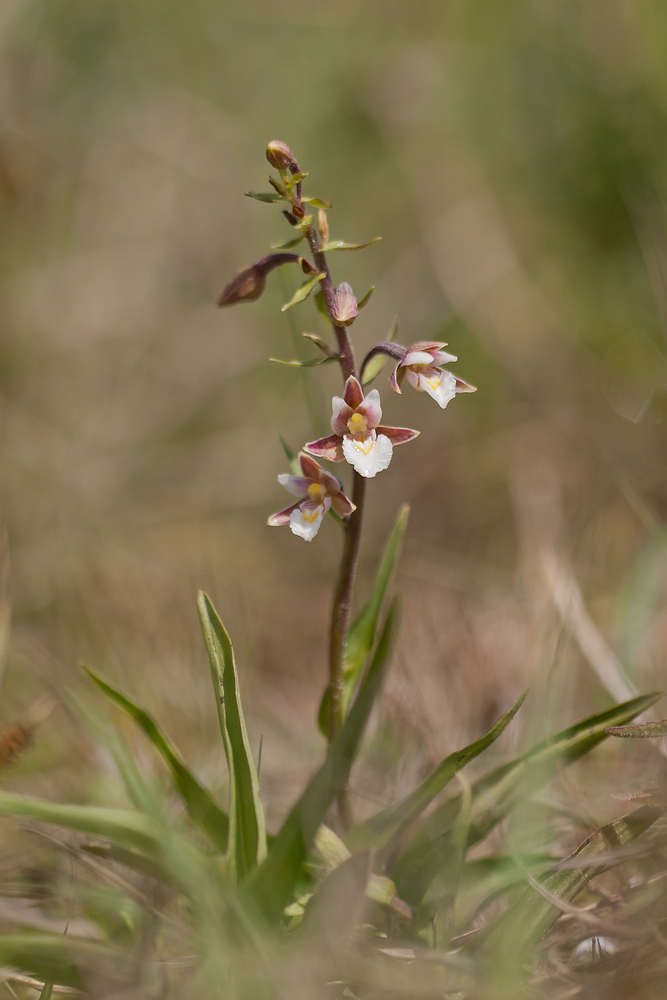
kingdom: Plantae
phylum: Tracheophyta
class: Liliopsida
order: Asparagales
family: Orchidaceae
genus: Epipactis
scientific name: Epipactis palustris
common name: Marsh helleborine
